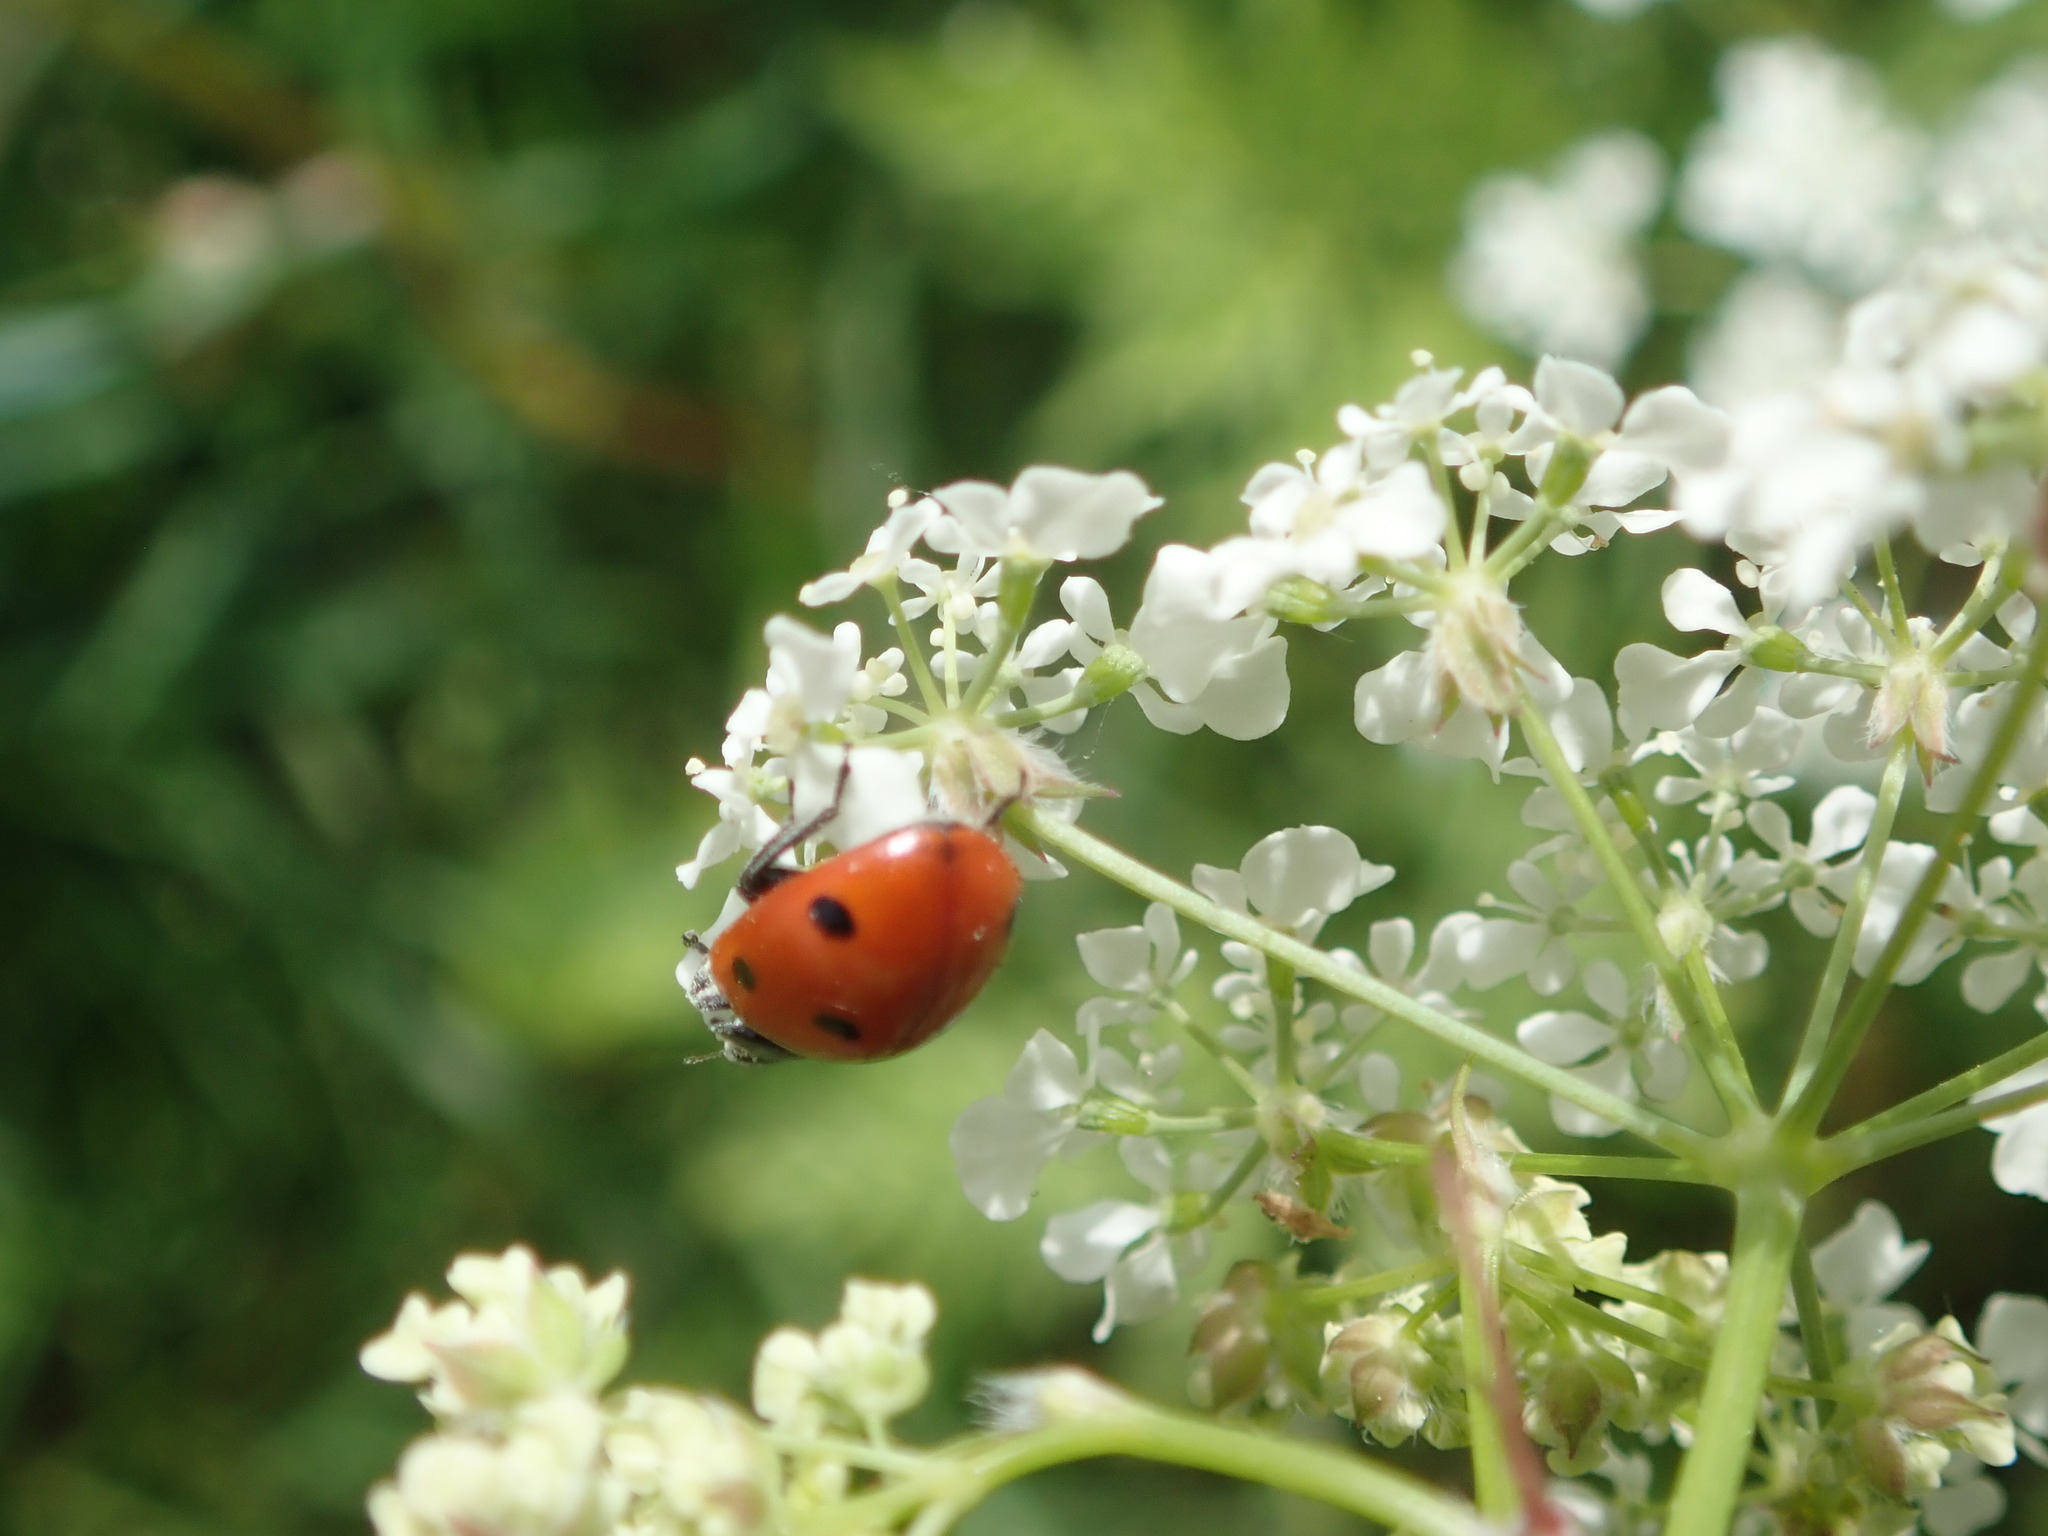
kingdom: Animalia
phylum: Arthropoda
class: Insecta
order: Coleoptera
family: Coccinellidae
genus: Coccinella
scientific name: Coccinella septempunctata
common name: Sevenspotted lady beetle
